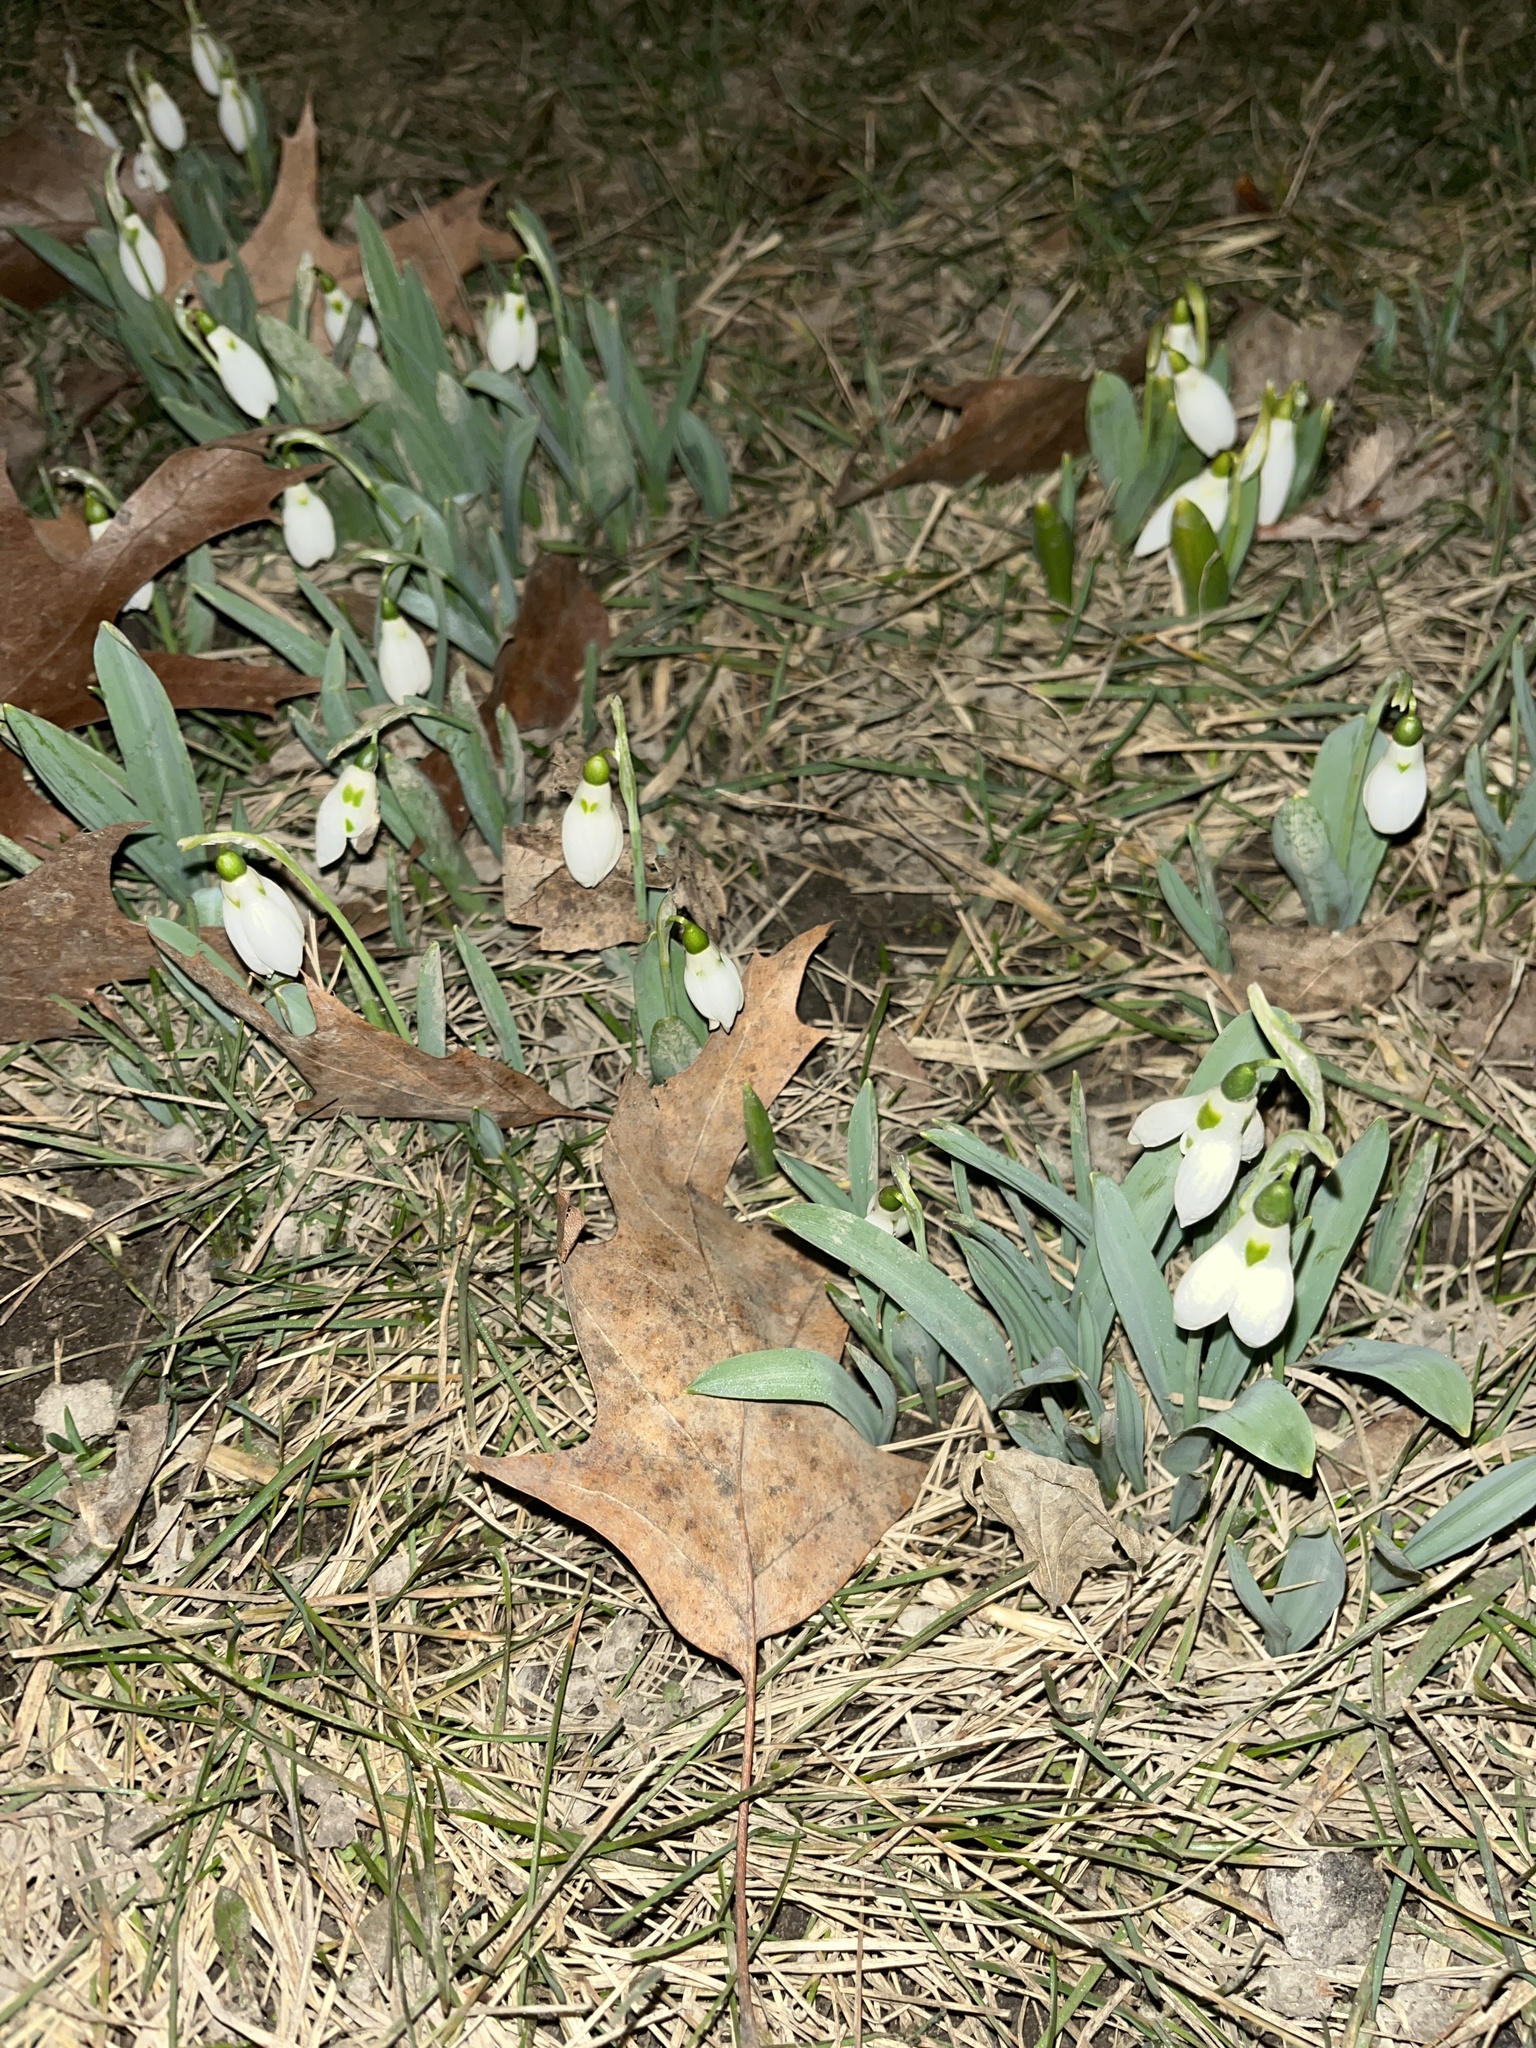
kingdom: Plantae
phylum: Tracheophyta
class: Liliopsida
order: Asparagales
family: Amaryllidaceae
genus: Galanthus
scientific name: Galanthus elwesii
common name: Greater snowdrop
